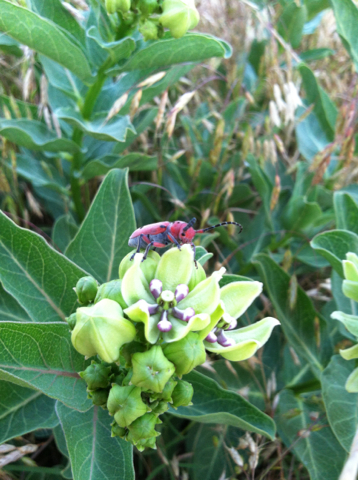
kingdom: Animalia
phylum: Arthropoda
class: Insecta
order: Coleoptera
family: Cerambycidae
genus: Tetraopes
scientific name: Tetraopes
